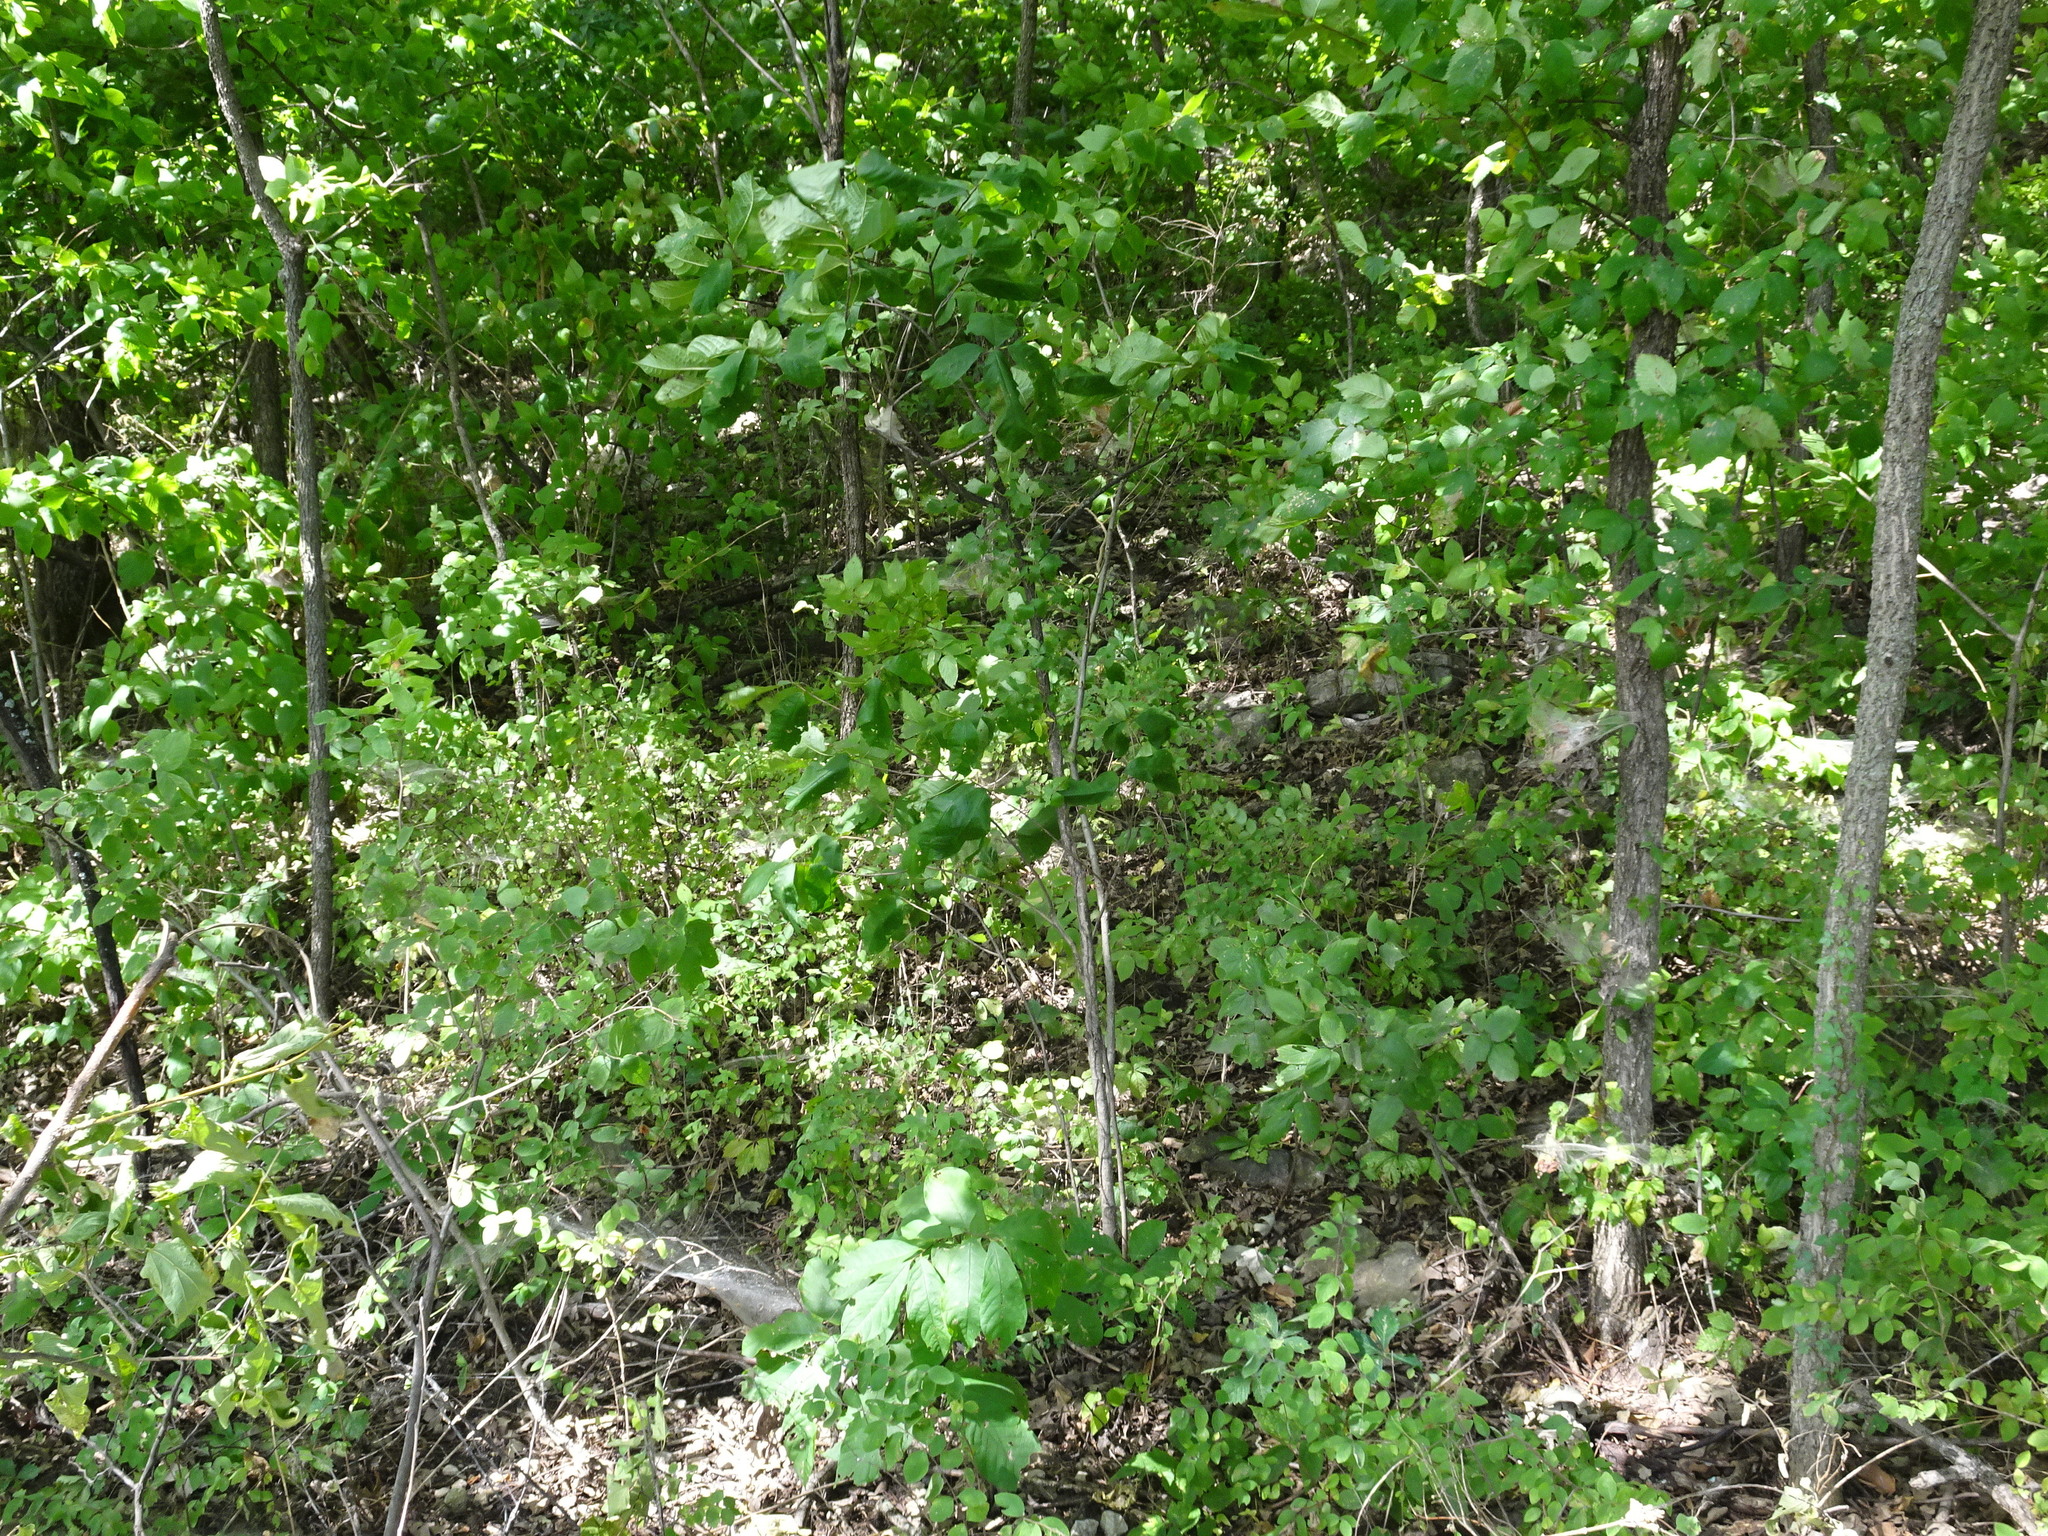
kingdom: Plantae
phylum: Tracheophyta
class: Magnoliopsida
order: Magnoliales
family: Annonaceae
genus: Asimina
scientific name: Asimina triloba
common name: Dog-banana
